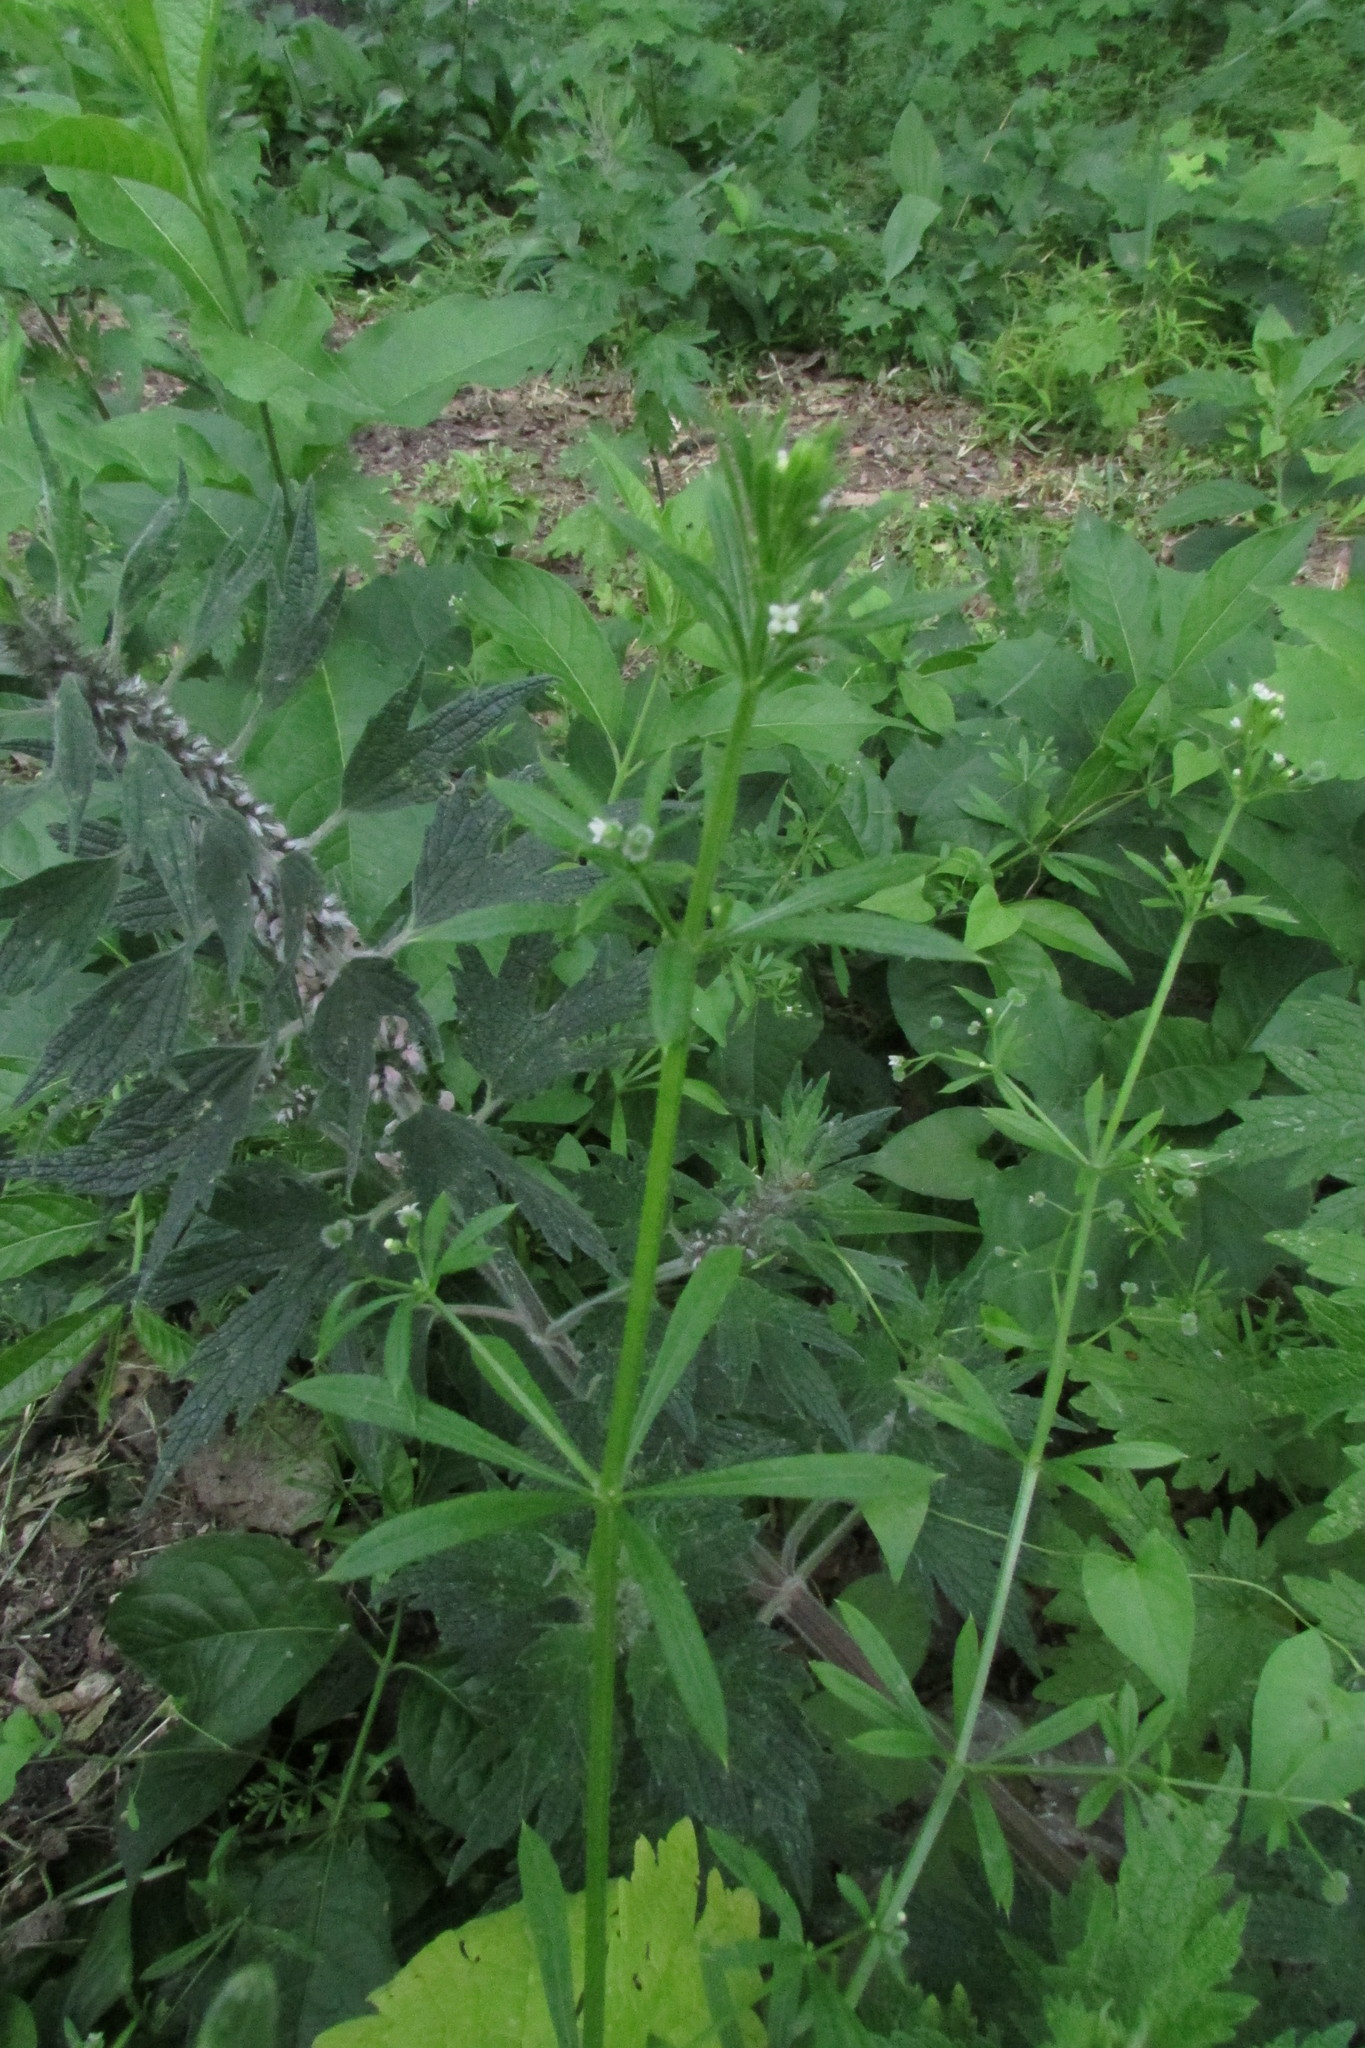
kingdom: Plantae
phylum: Tracheophyta
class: Magnoliopsida
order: Gentianales
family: Rubiaceae
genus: Galium
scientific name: Galium aparine
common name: Cleavers
